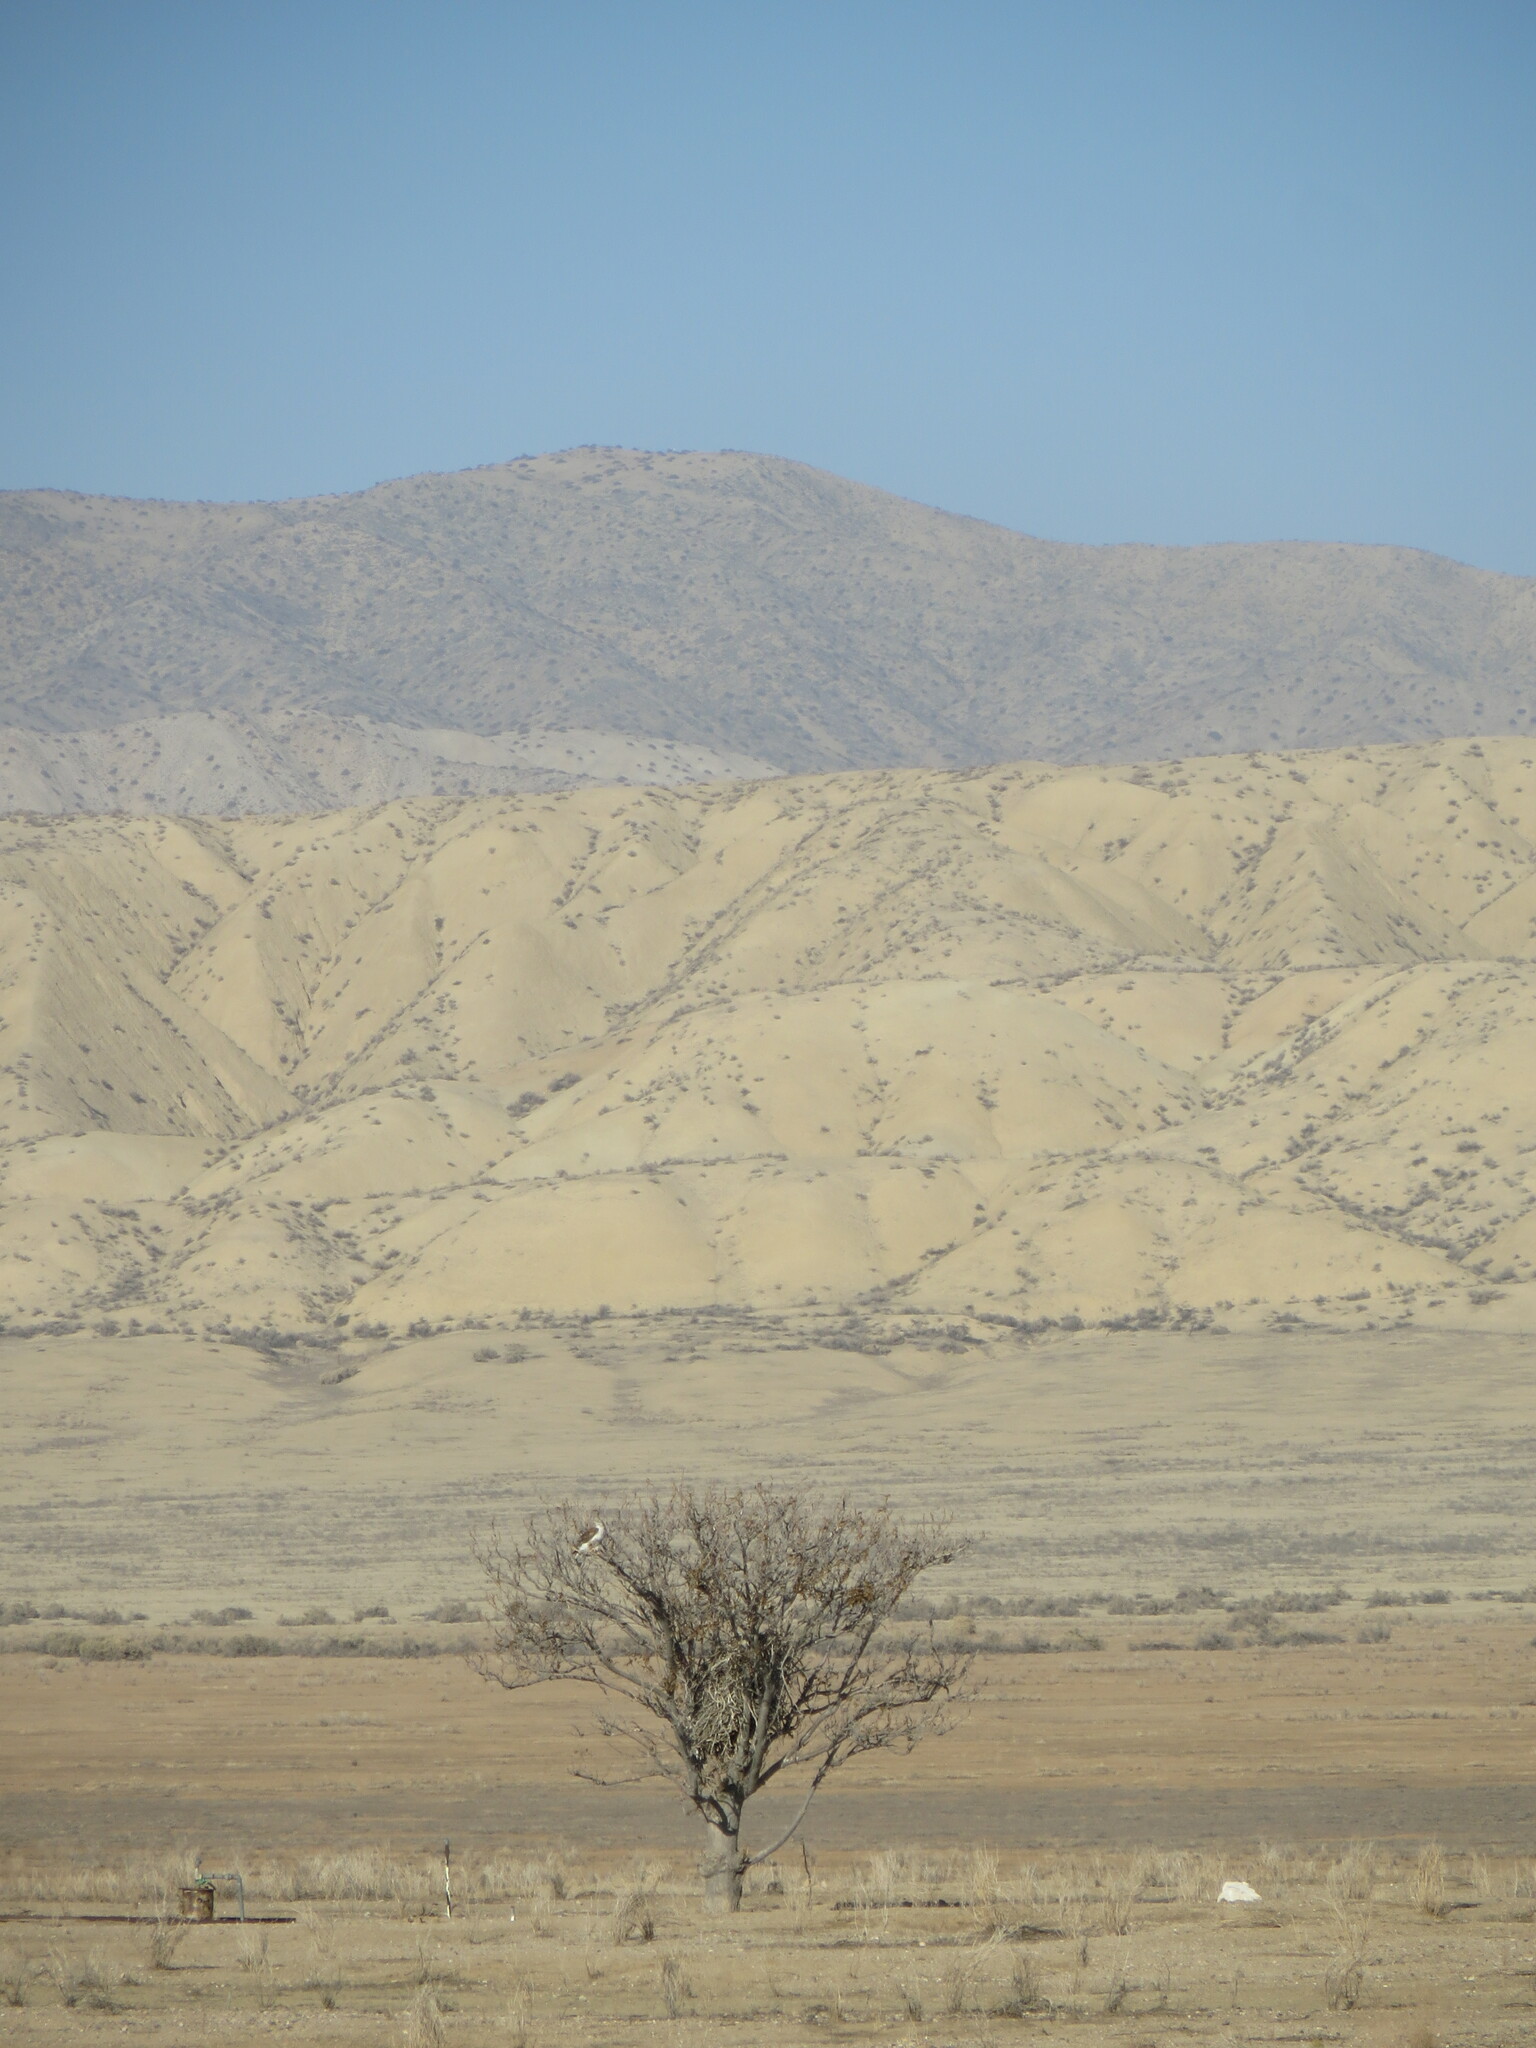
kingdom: Animalia
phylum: Chordata
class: Aves
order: Accipitriformes
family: Accipitridae
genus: Buteo
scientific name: Buteo regalis
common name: Ferruginous hawk
